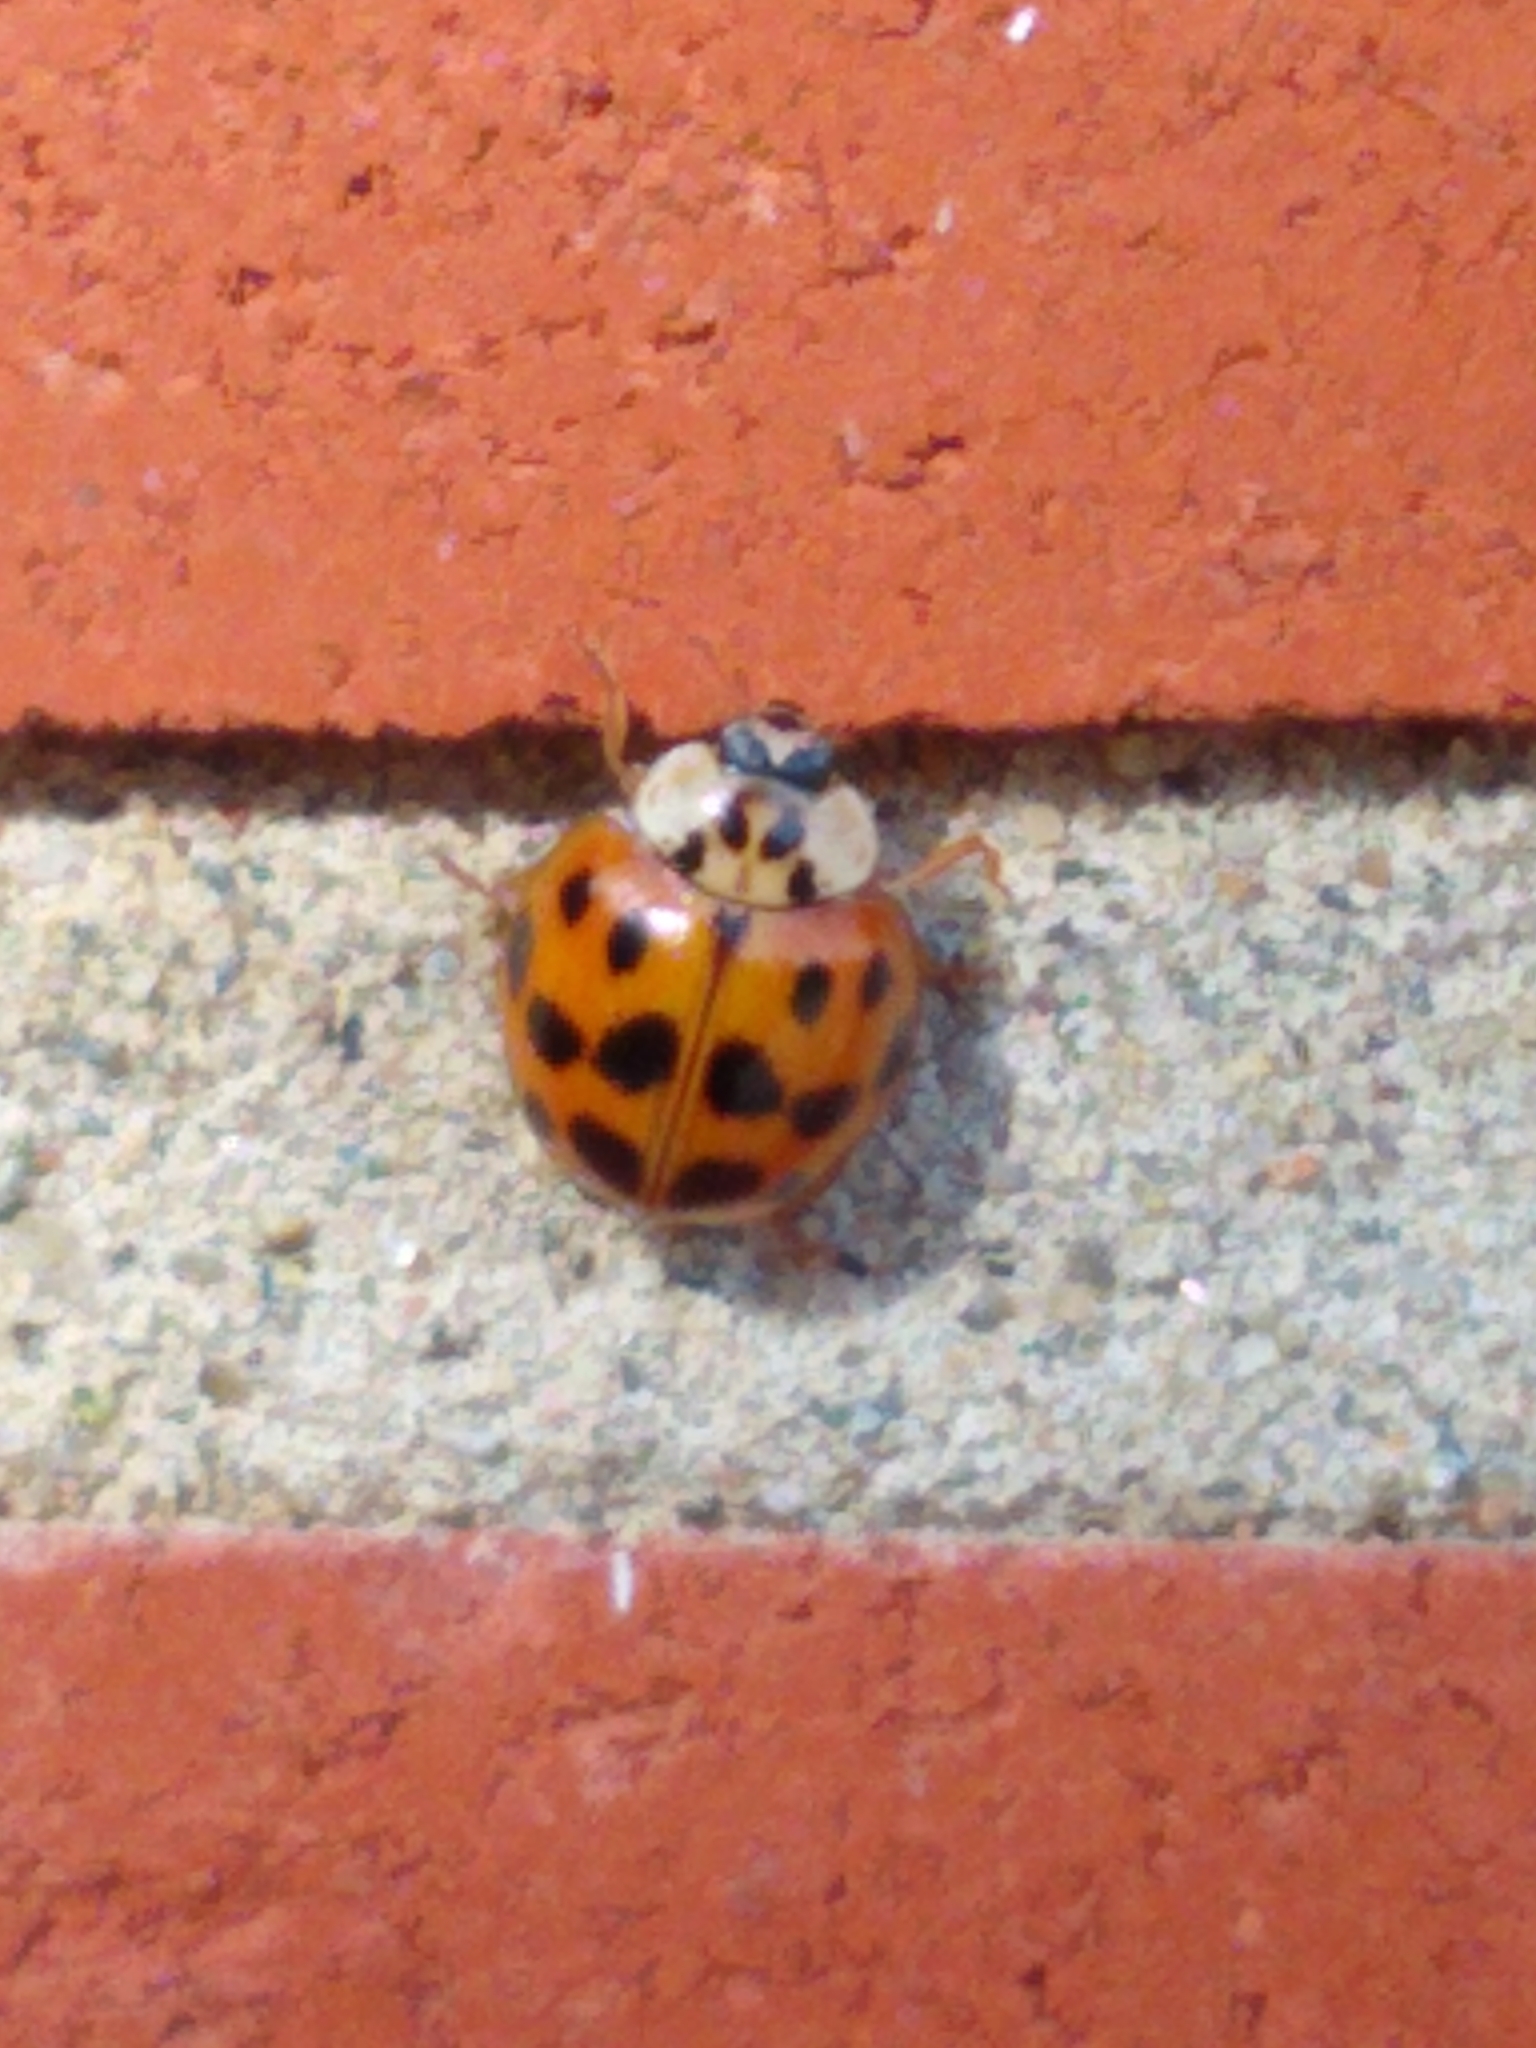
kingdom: Animalia
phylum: Arthropoda
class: Insecta
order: Coleoptera
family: Coccinellidae
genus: Harmonia
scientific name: Harmonia axyridis
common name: Harlequin ladybird
